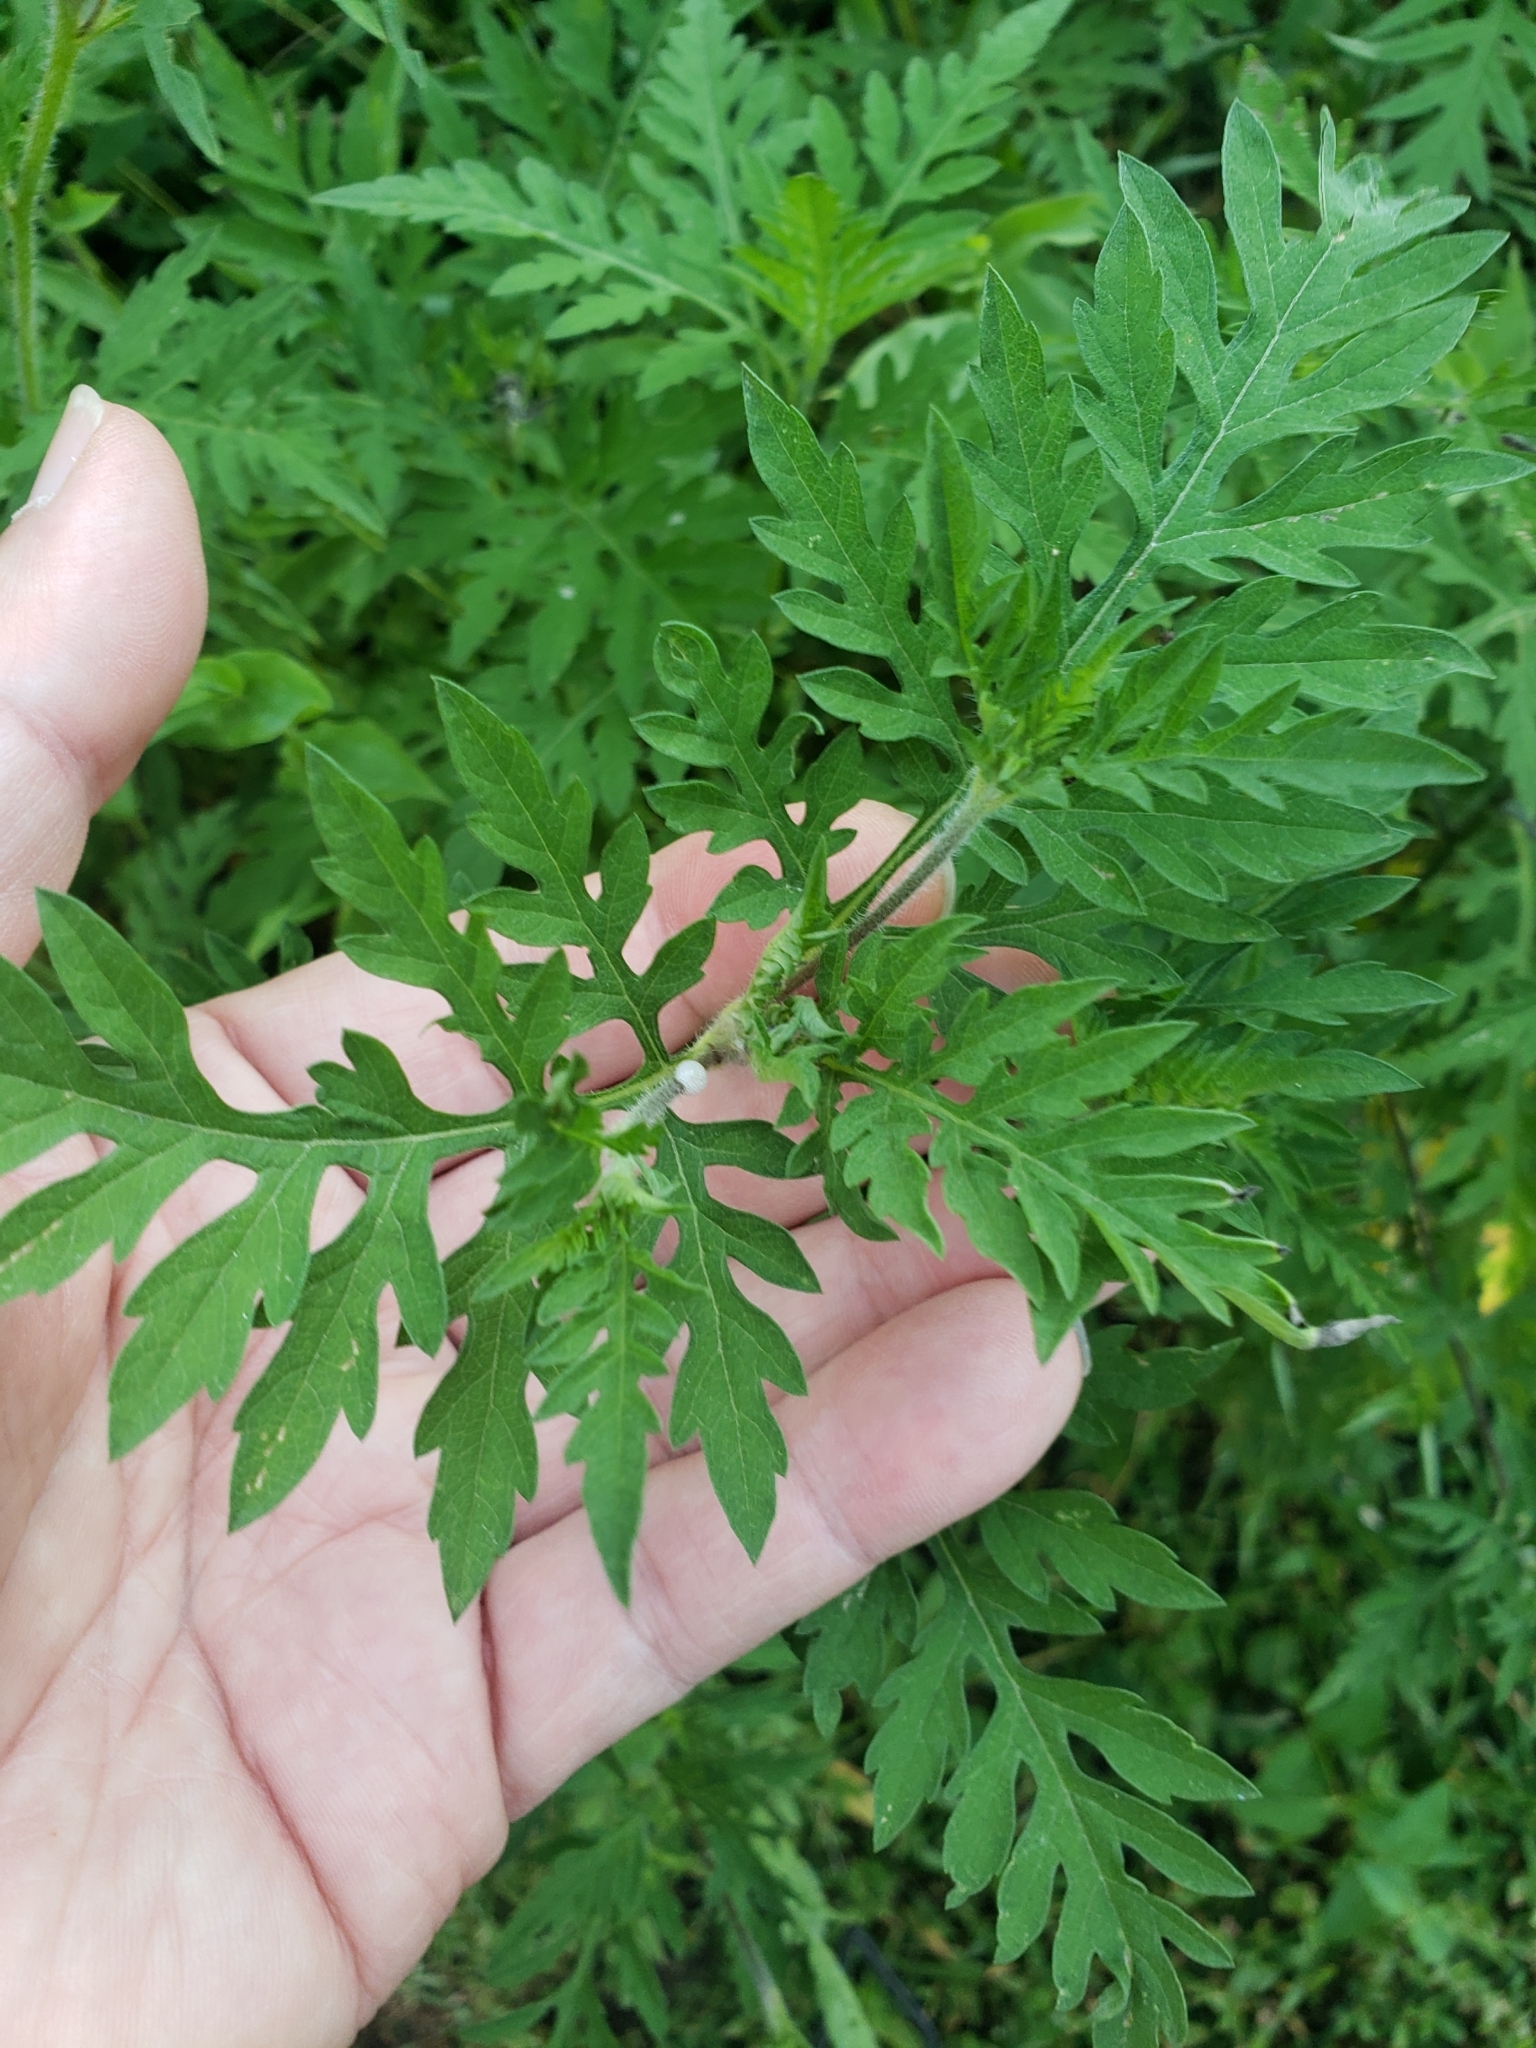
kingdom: Animalia
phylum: Arthropoda
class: Insecta
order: Coleoptera
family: Chrysomelidae
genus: Calligrapha
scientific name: Calligrapha
